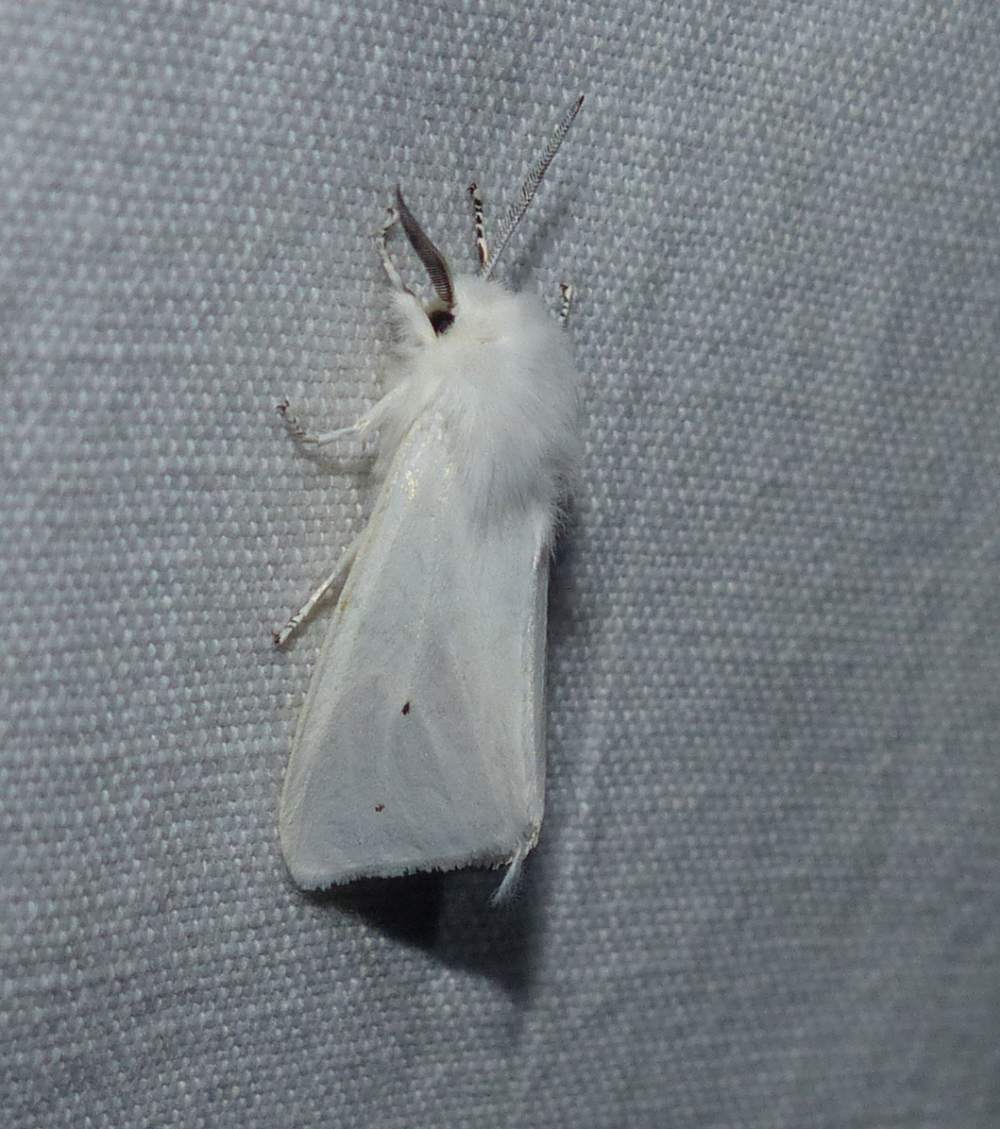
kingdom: Animalia
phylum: Arthropoda
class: Insecta
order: Lepidoptera
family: Erebidae
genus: Spilosoma
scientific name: Spilosoma virginica
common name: Virginia tiger moth
